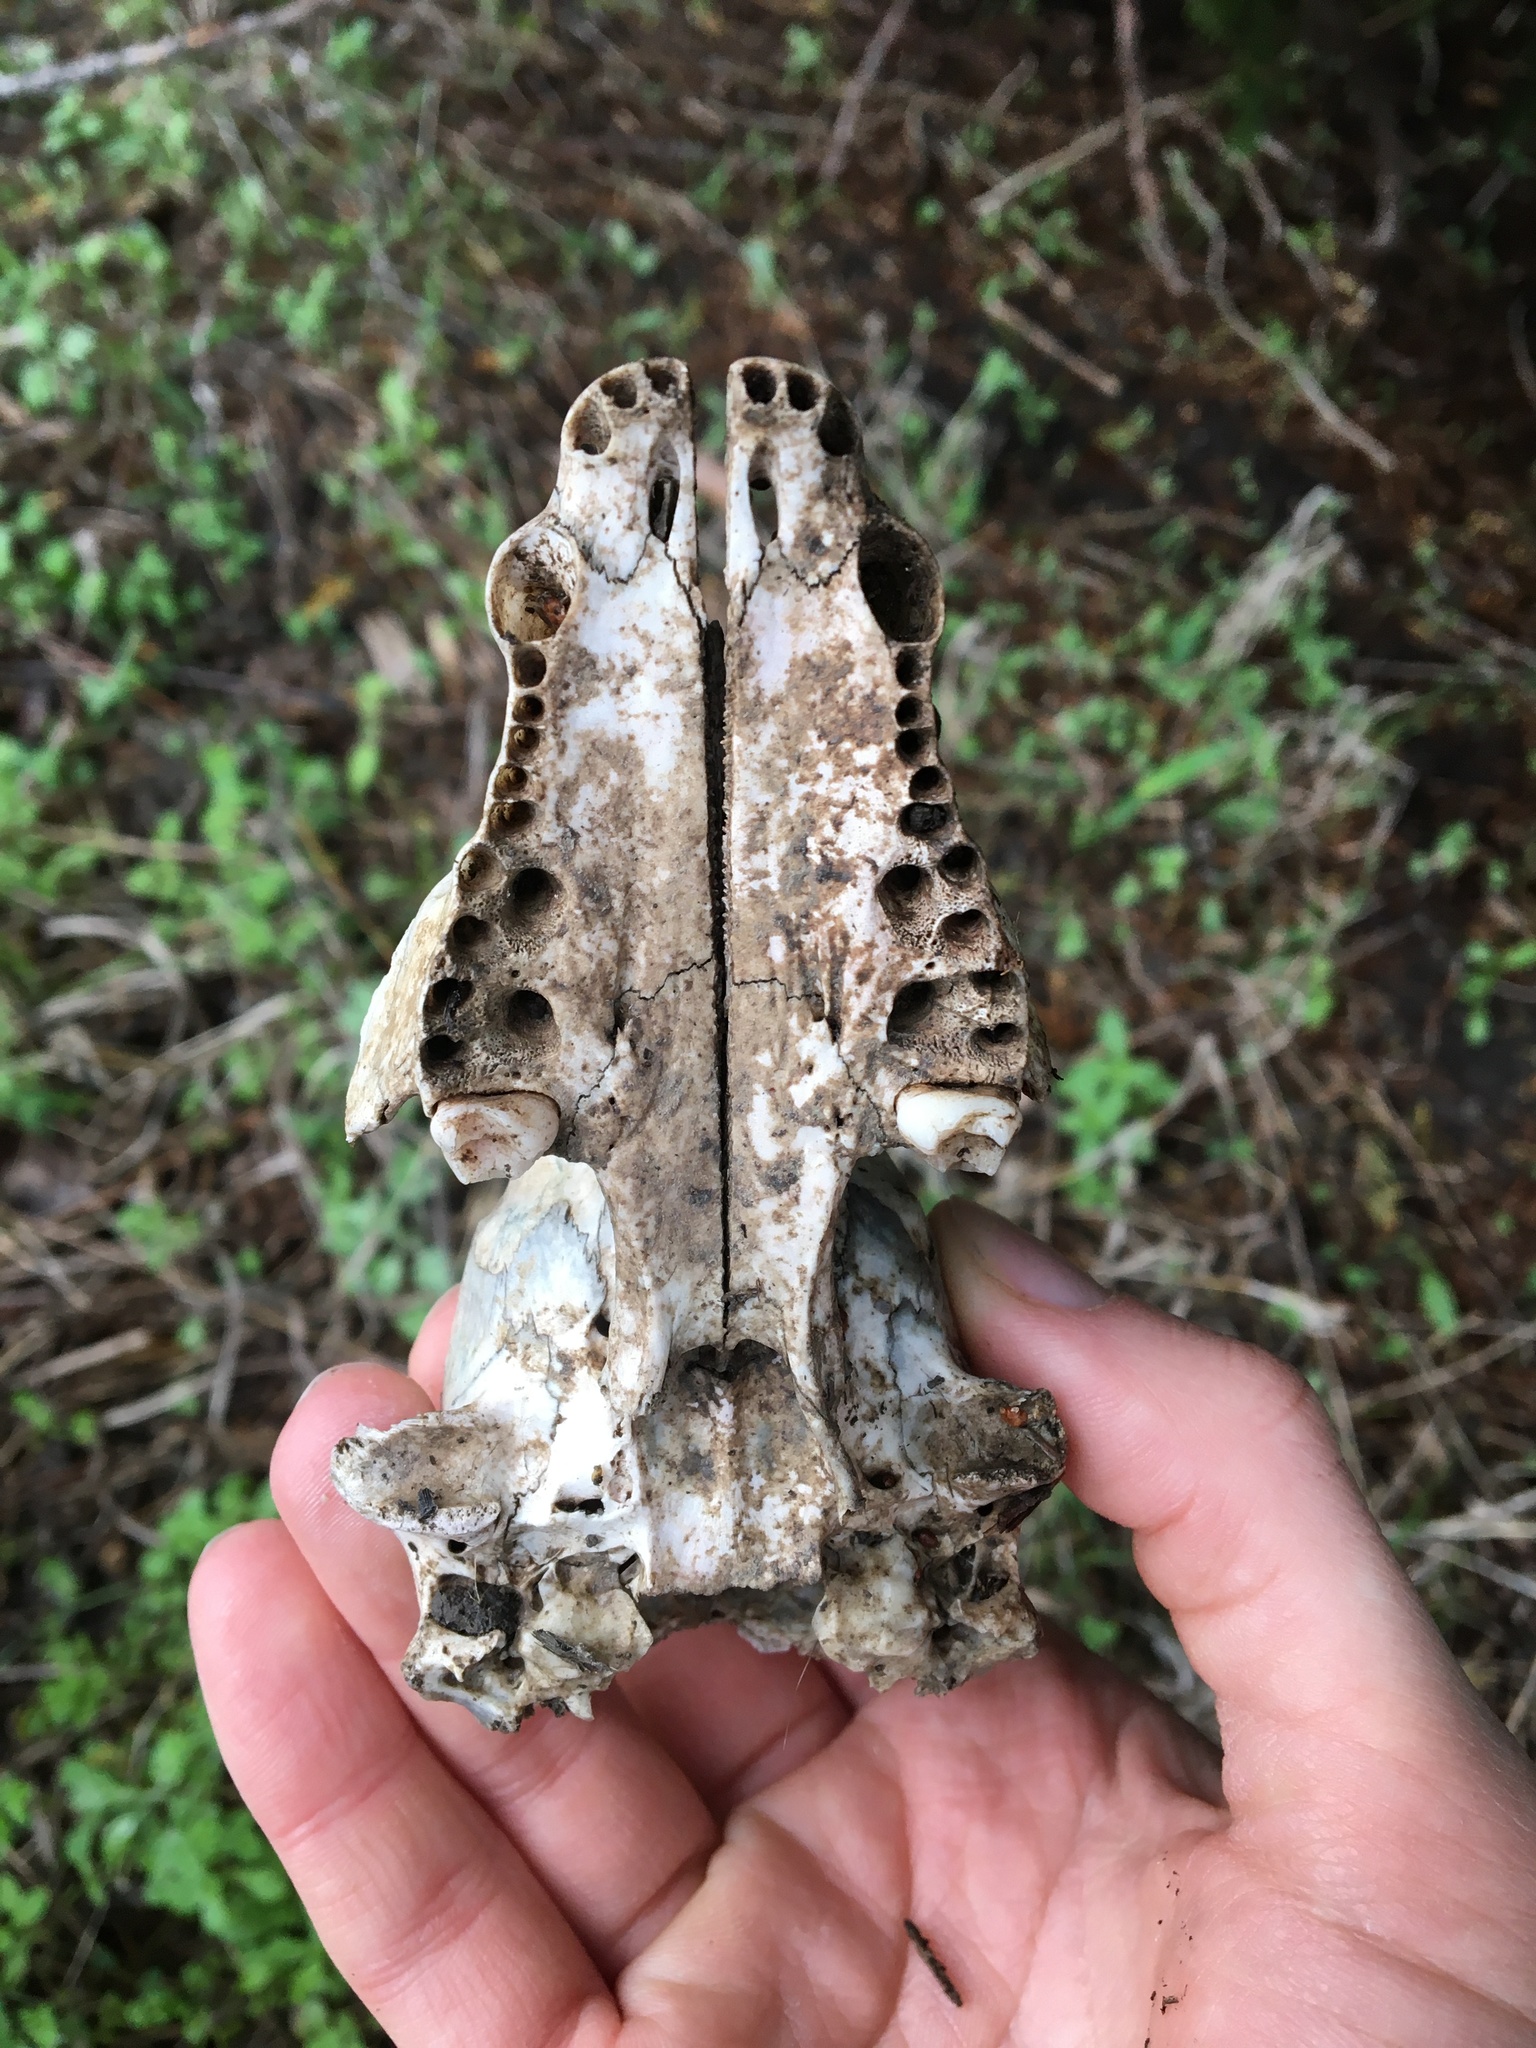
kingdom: Animalia
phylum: Chordata
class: Mammalia
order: Carnivora
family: Procyonidae
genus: Procyon
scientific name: Procyon lotor
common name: Raccoon
